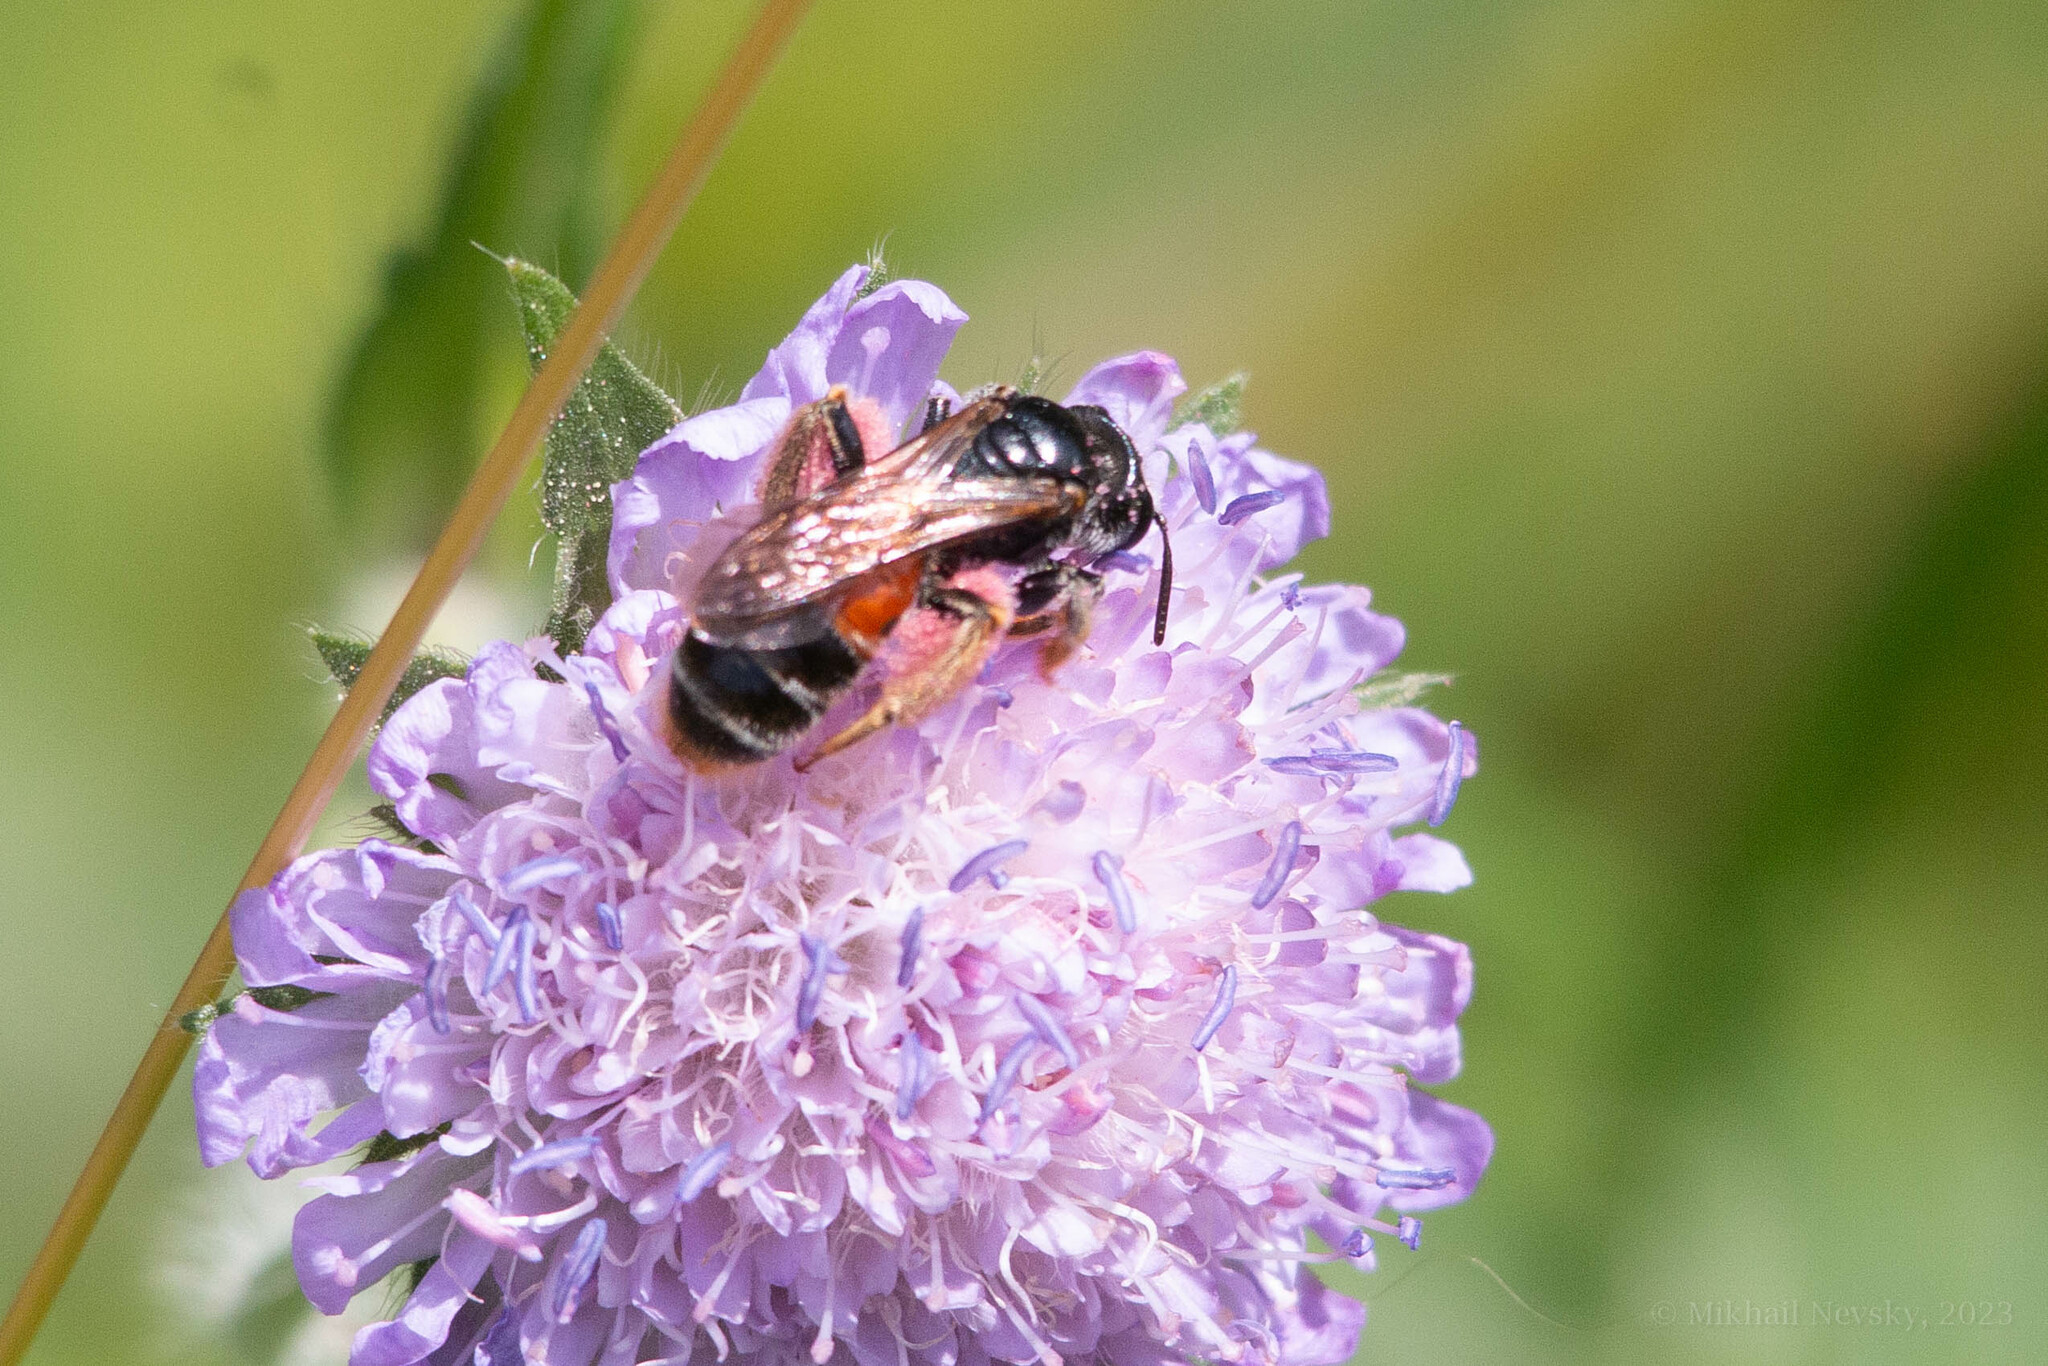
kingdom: Animalia
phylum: Arthropoda
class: Insecta
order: Hymenoptera
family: Andrenidae
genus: Andrena
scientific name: Andrena hattorfiana
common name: Large scabious mining bee
